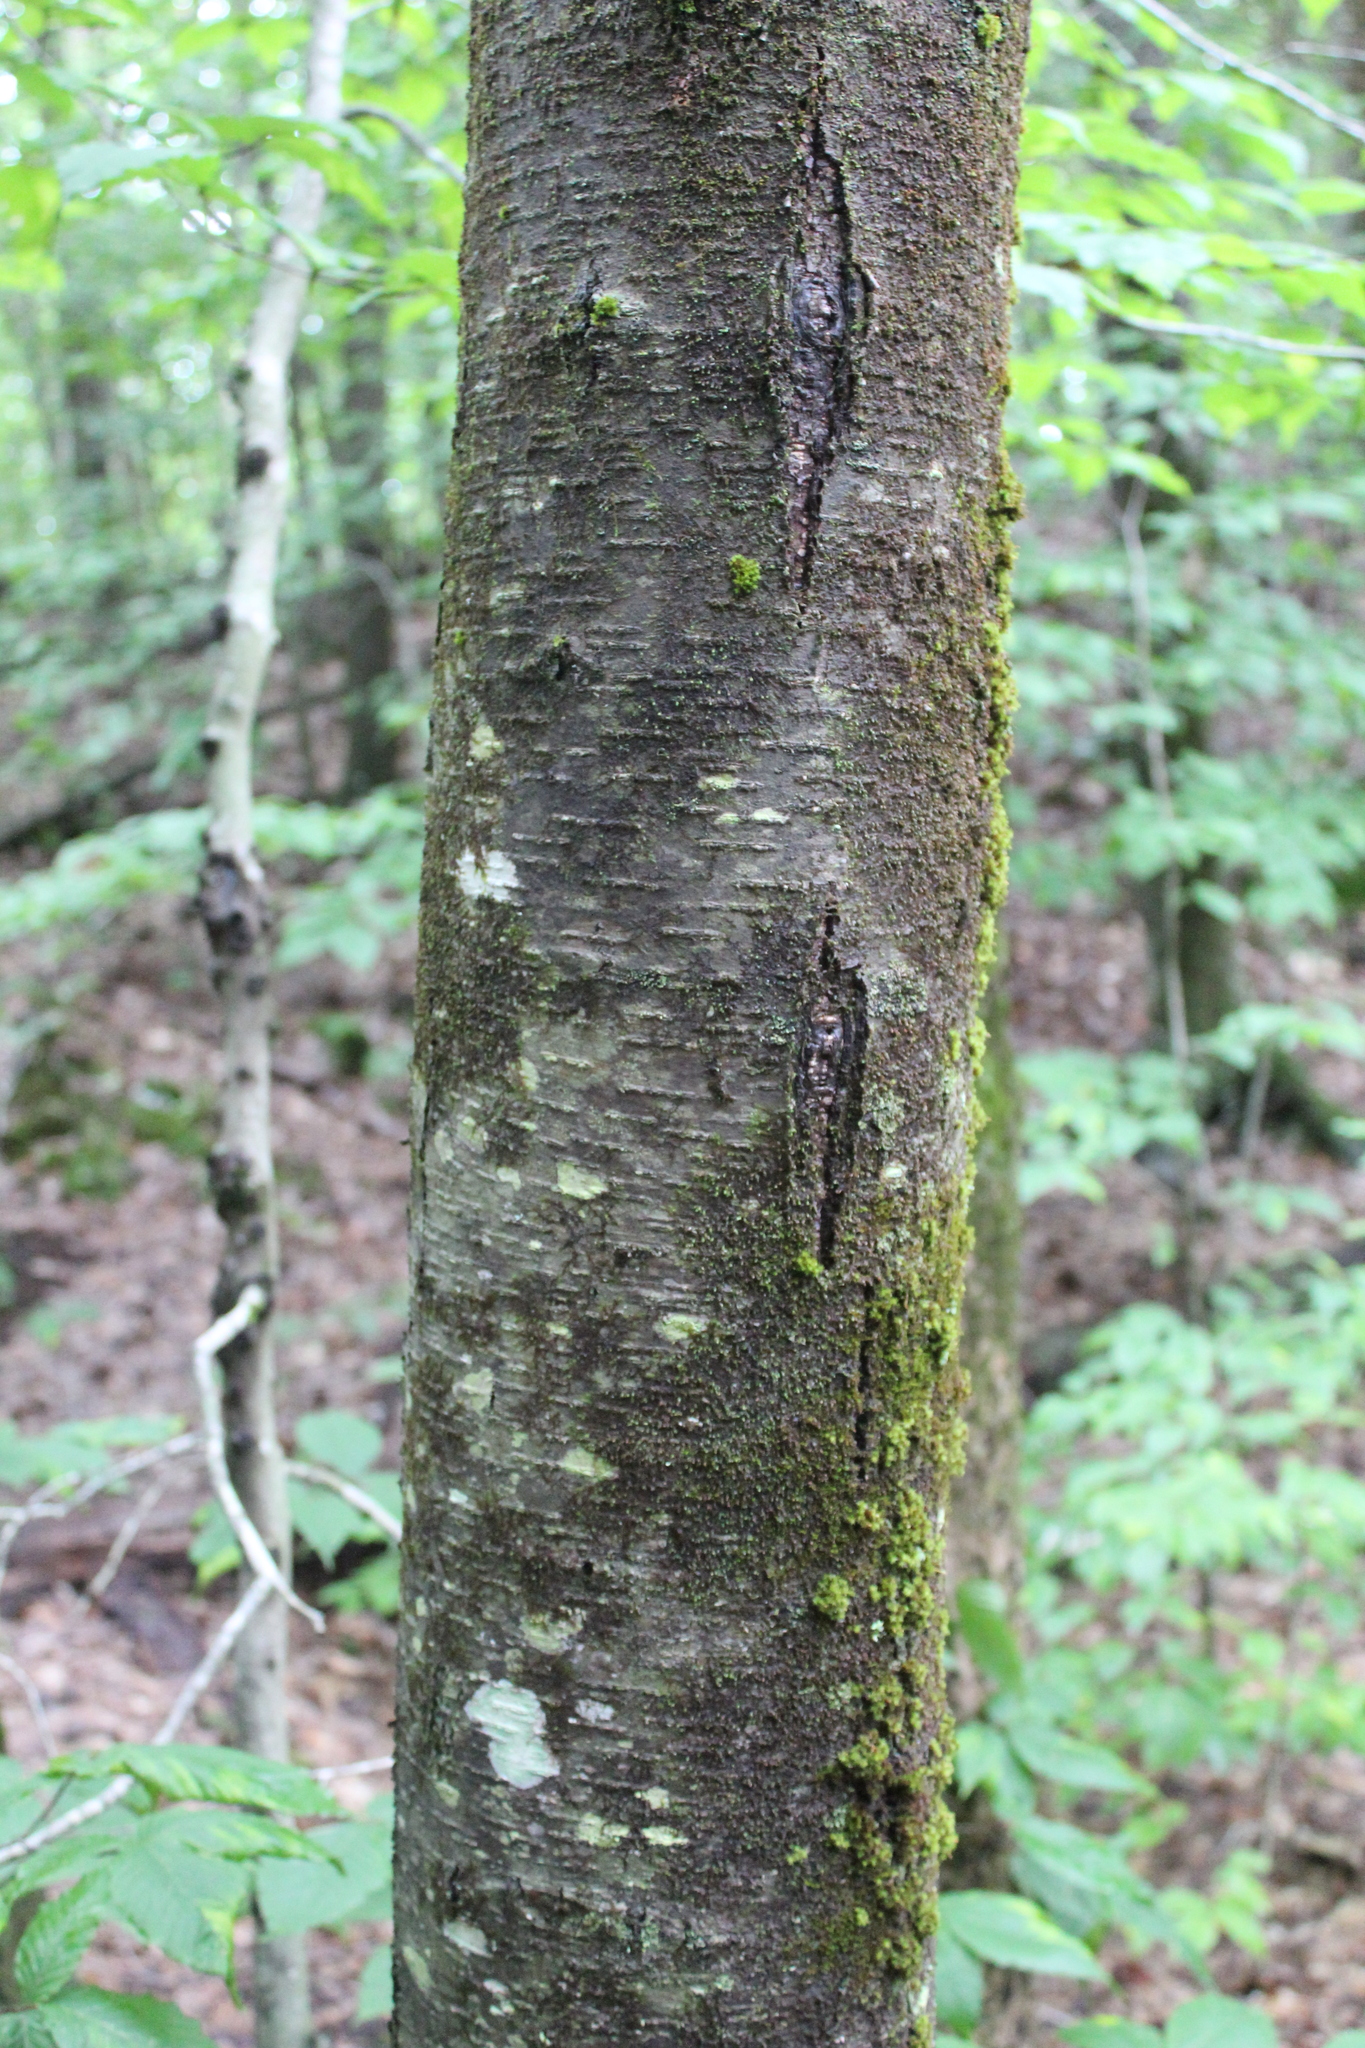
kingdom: Plantae
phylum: Tracheophyta
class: Magnoliopsida
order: Fagales
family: Betulaceae
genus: Betula
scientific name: Betula lenta
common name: Black birch
